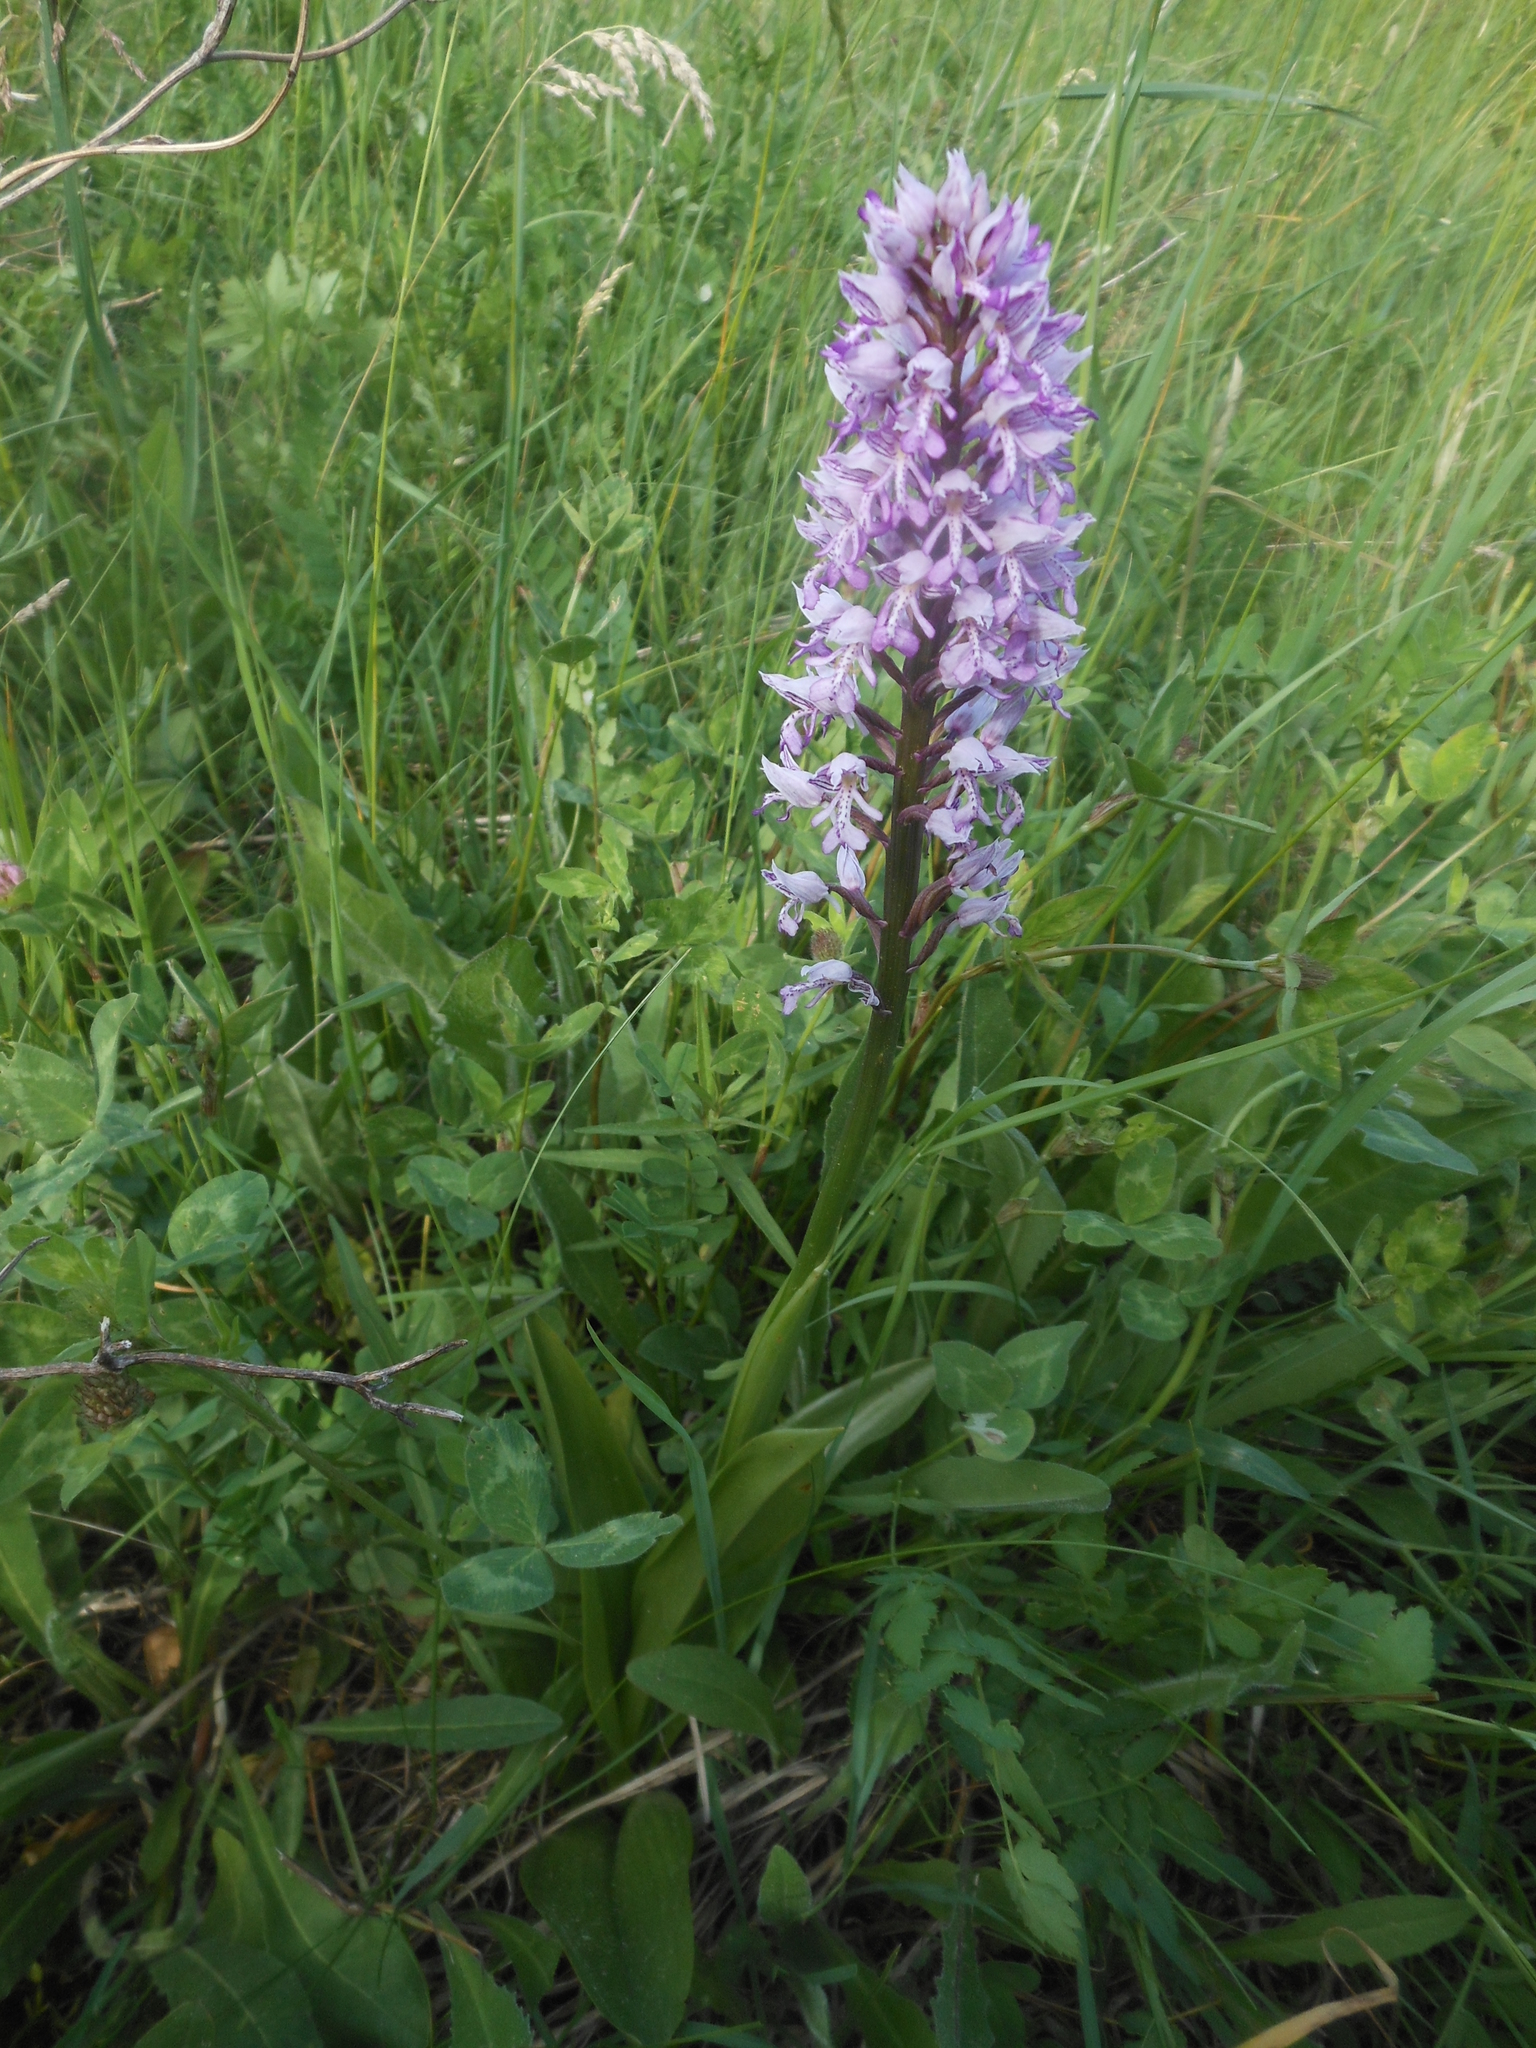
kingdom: Plantae
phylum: Tracheophyta
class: Liliopsida
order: Asparagales
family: Orchidaceae
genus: Orchis
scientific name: Orchis militaris
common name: Military orchid
